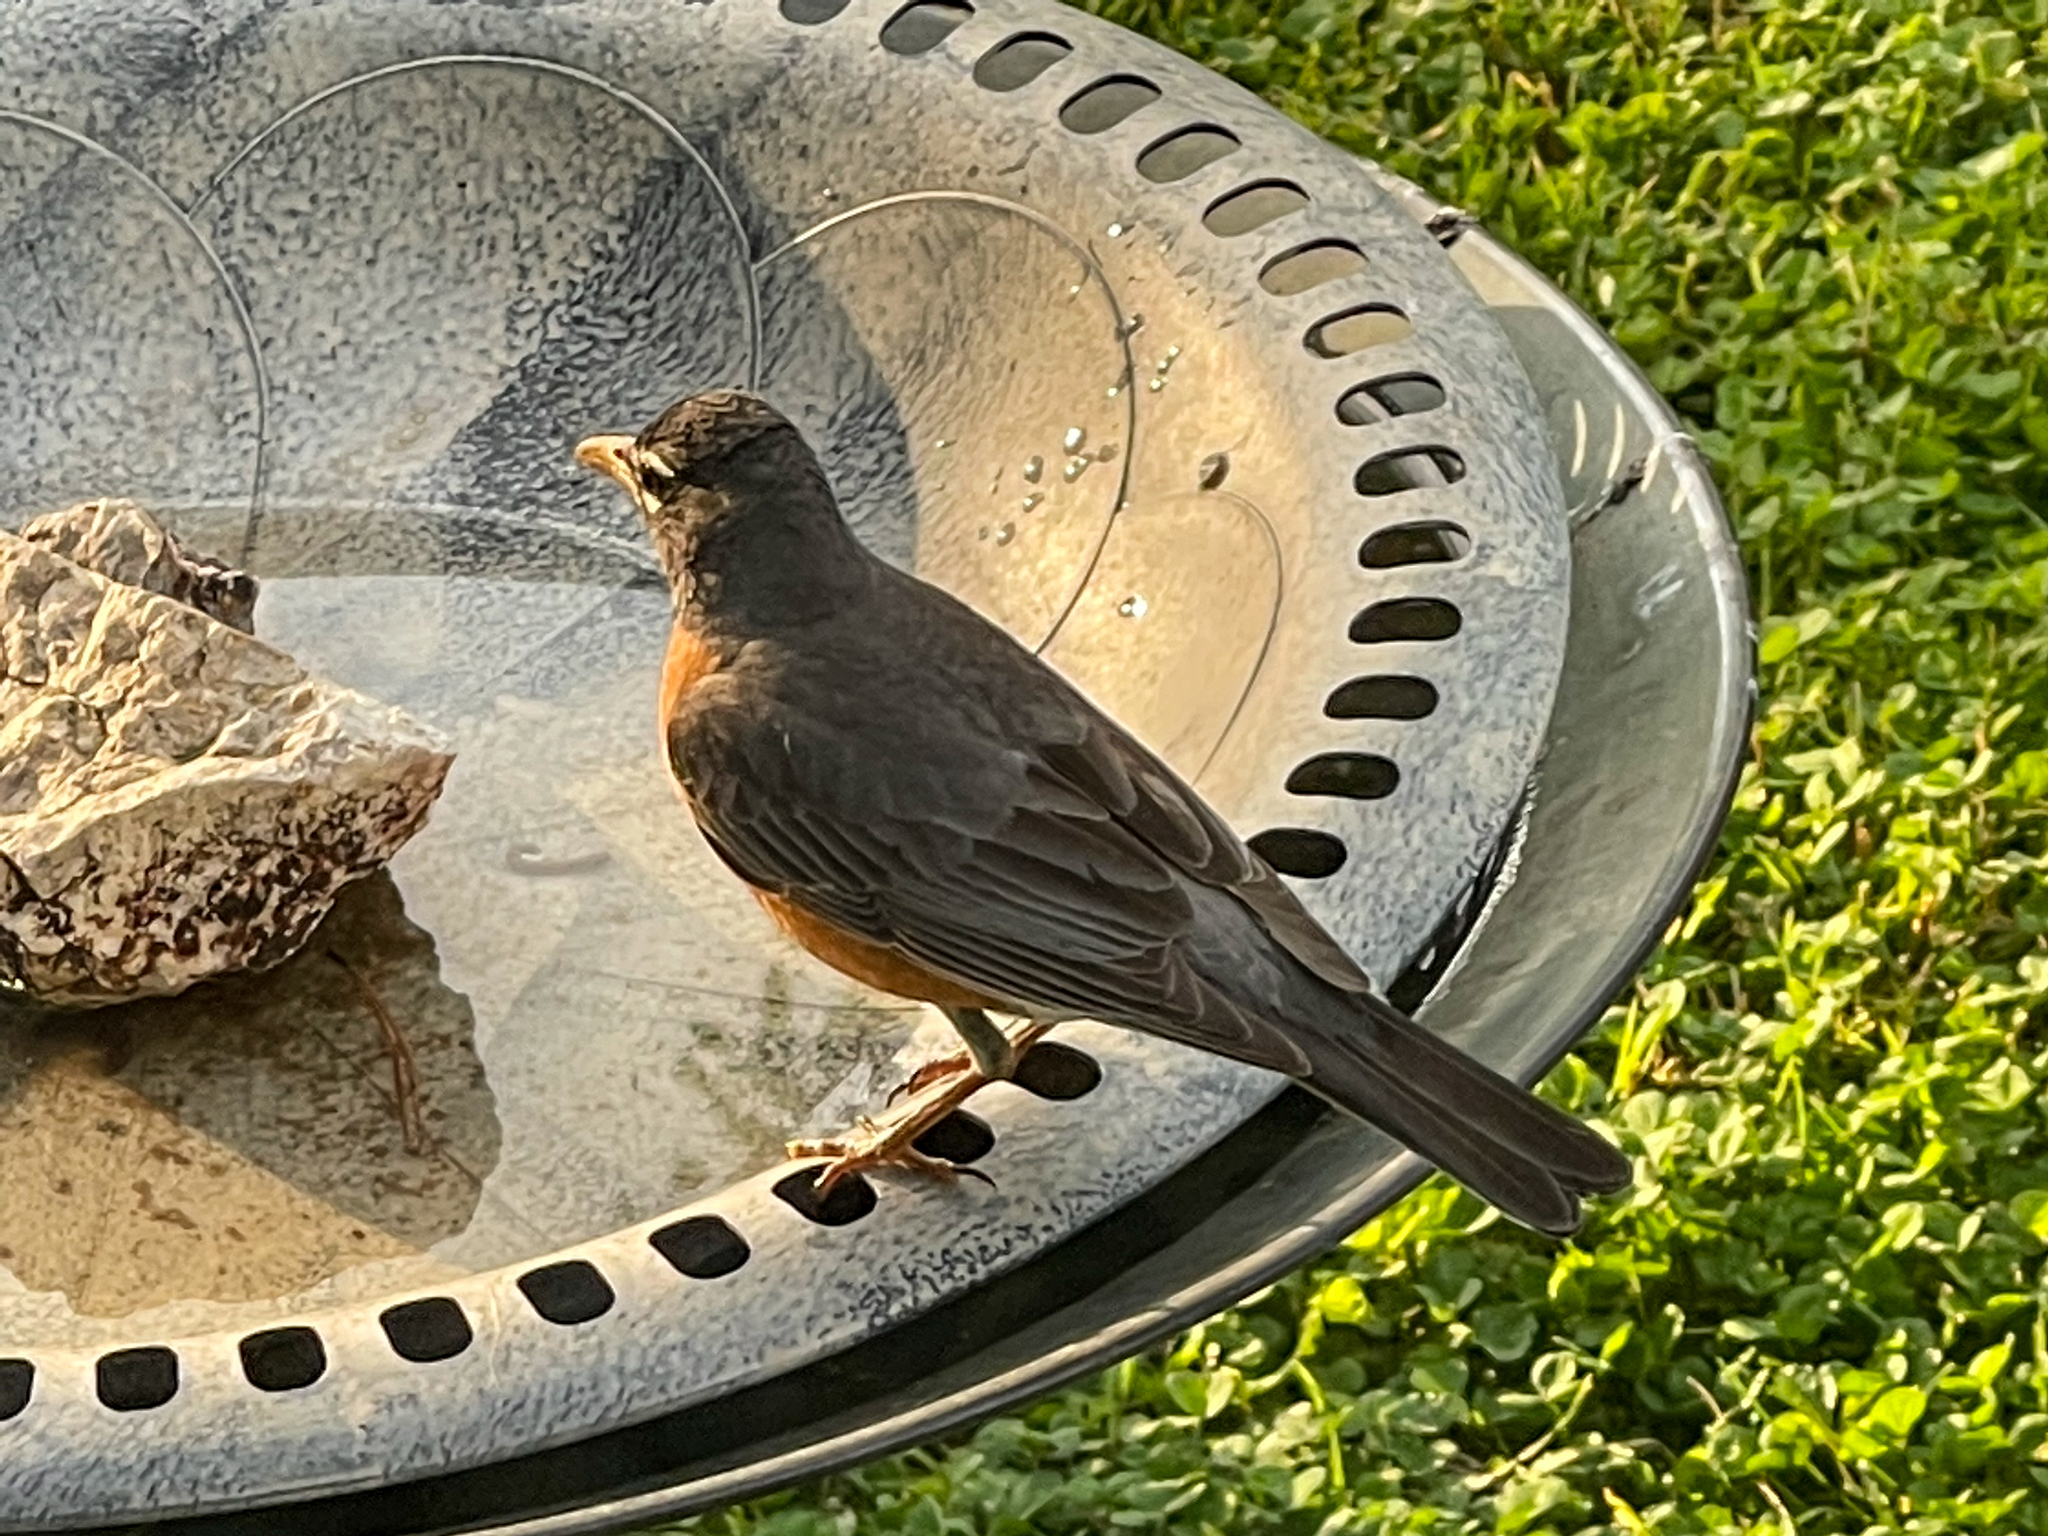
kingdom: Animalia
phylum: Chordata
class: Aves
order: Passeriformes
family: Turdidae
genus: Turdus
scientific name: Turdus migratorius
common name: American robin
